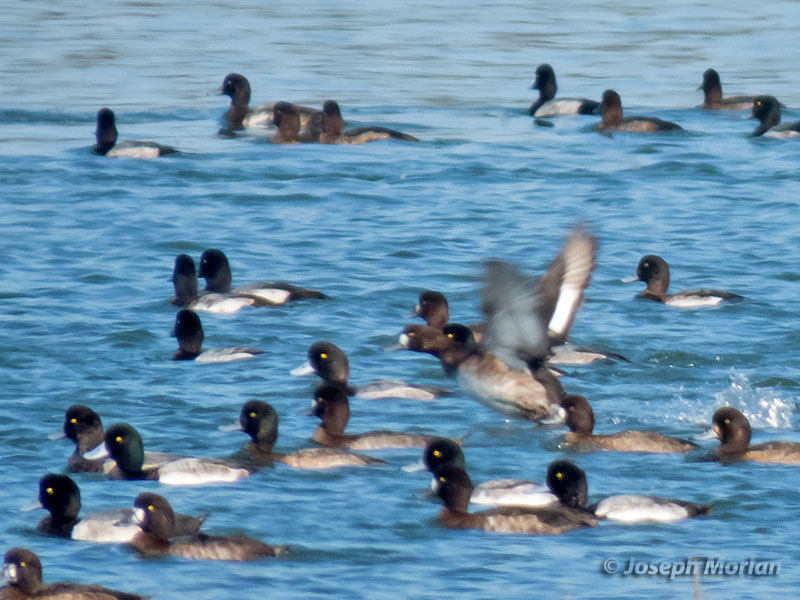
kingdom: Animalia
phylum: Chordata
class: Aves
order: Anseriformes
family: Anatidae
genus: Aythya
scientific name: Aythya marila
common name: Greater scaup
